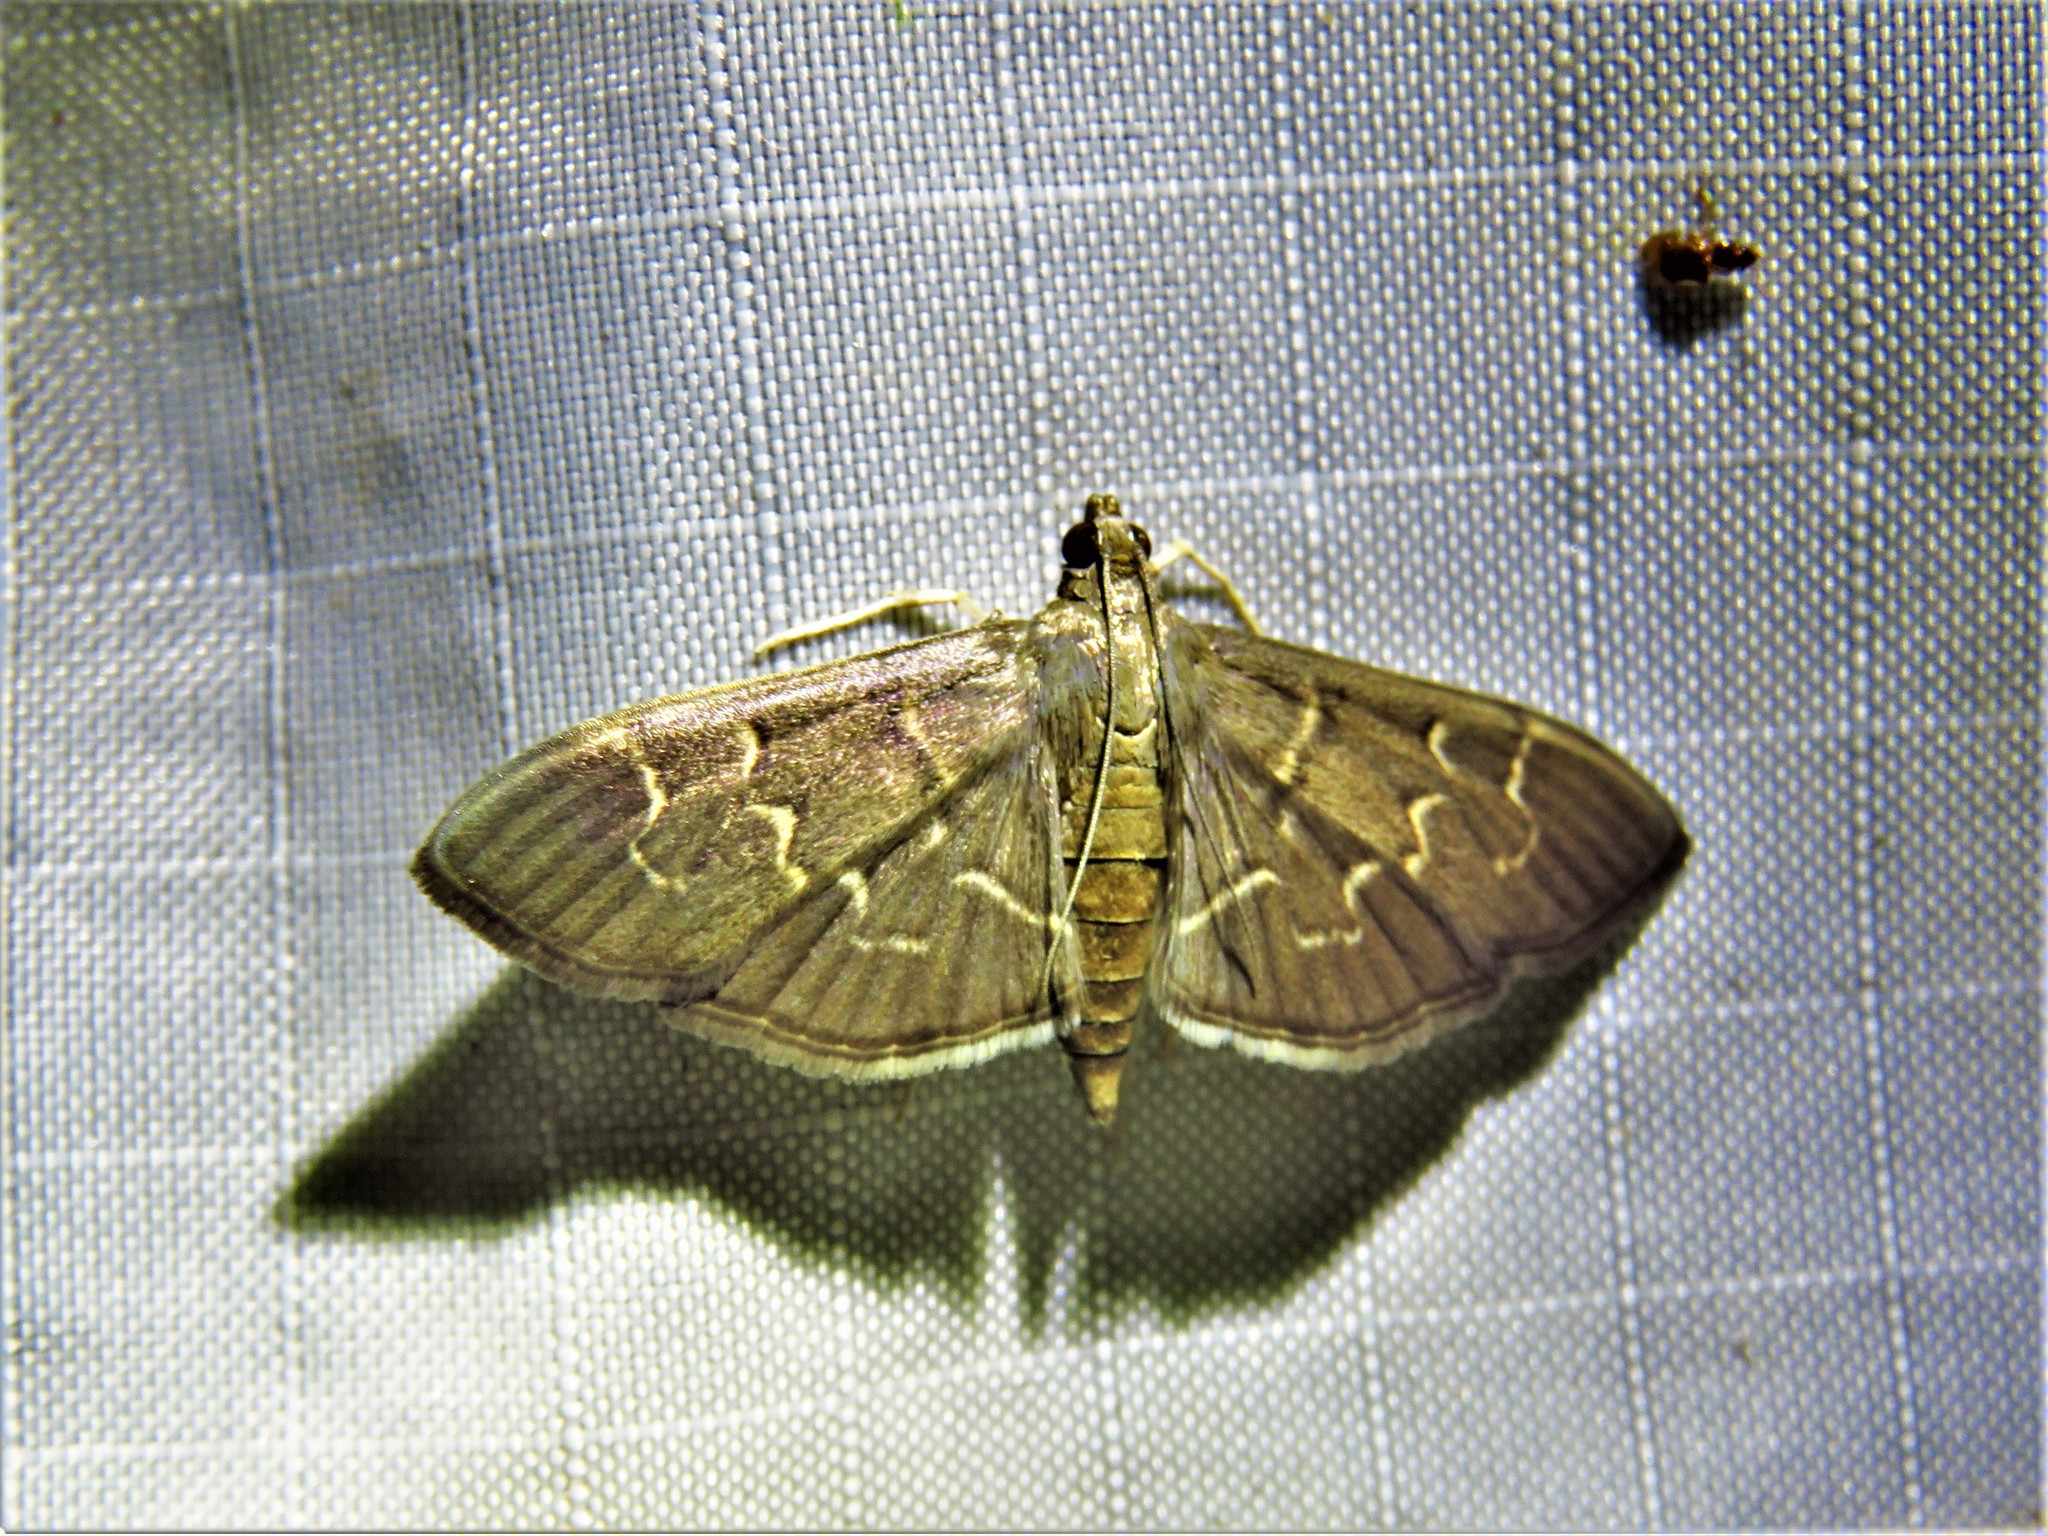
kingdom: Animalia
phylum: Arthropoda
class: Insecta
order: Lepidoptera
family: Crambidae
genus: Pilocrocis
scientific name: Pilocrocis ramentalis
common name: Scraped pilocrocis
